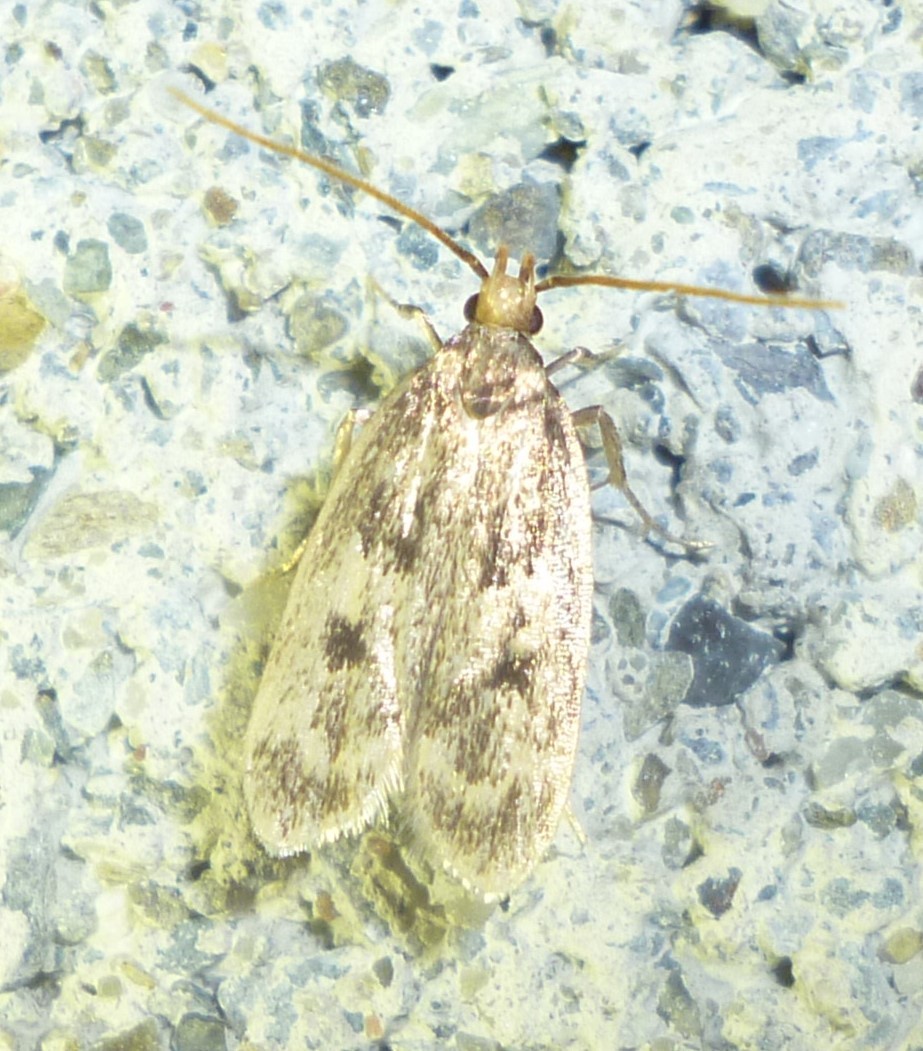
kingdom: Animalia
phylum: Arthropoda
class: Insecta
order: Lepidoptera
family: Lecithoceridae
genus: Martyringa
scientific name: Martyringa latipennis
